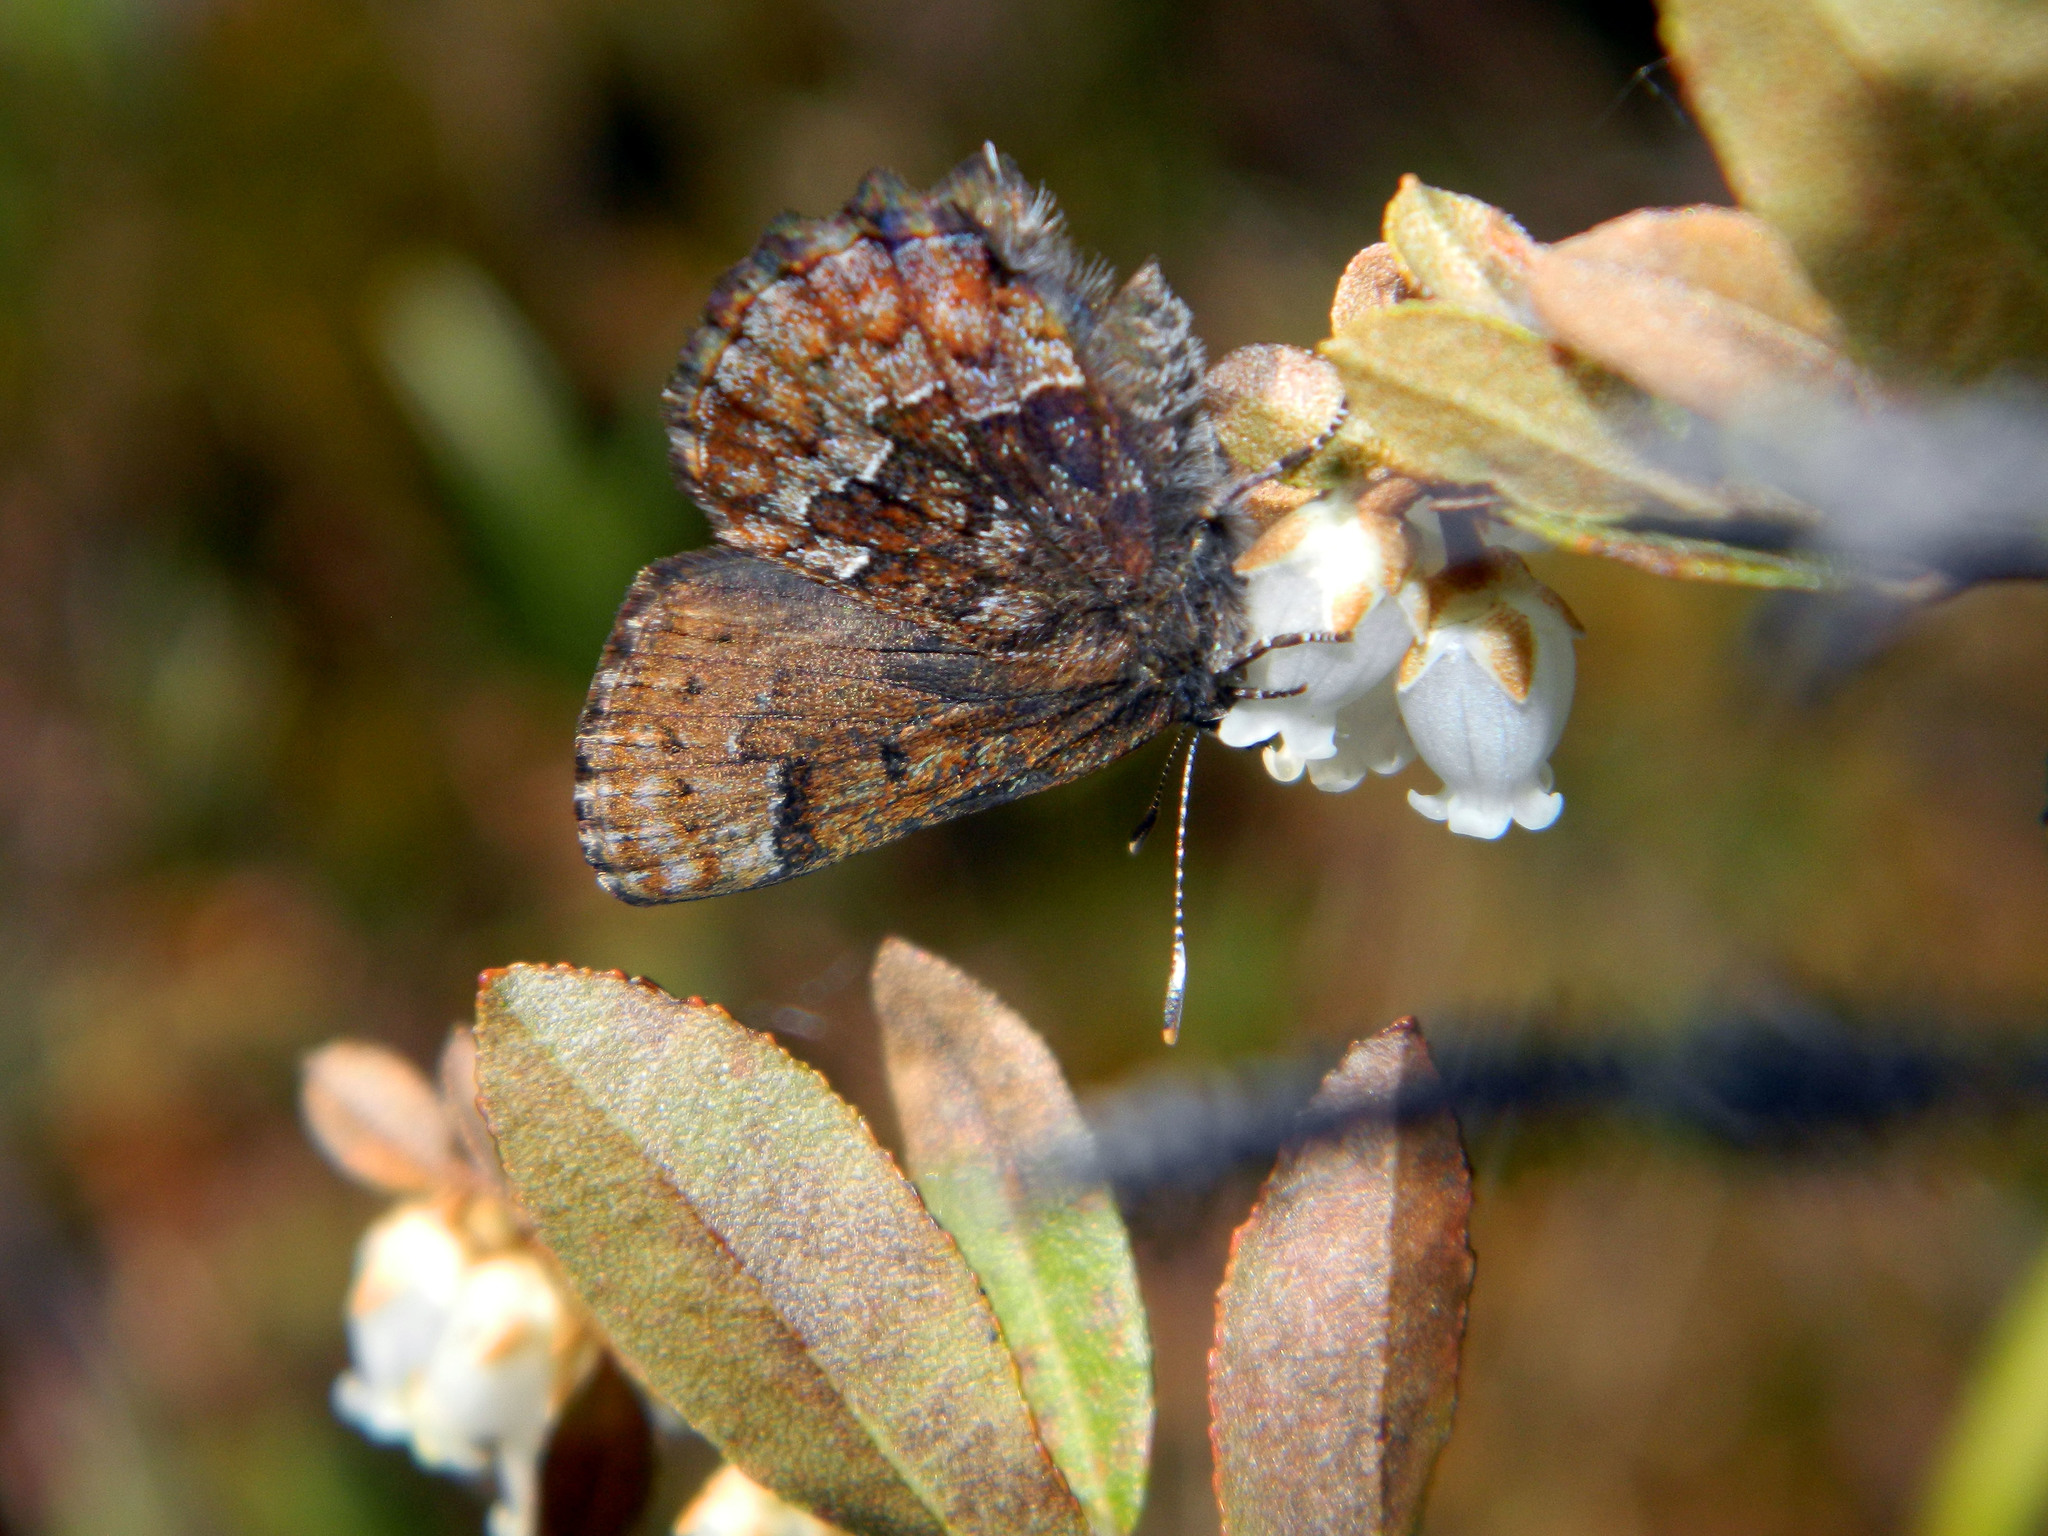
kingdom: Animalia
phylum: Arthropoda
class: Insecta
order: Lepidoptera
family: Lycaenidae
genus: Incisalia
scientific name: Incisalia niphon
